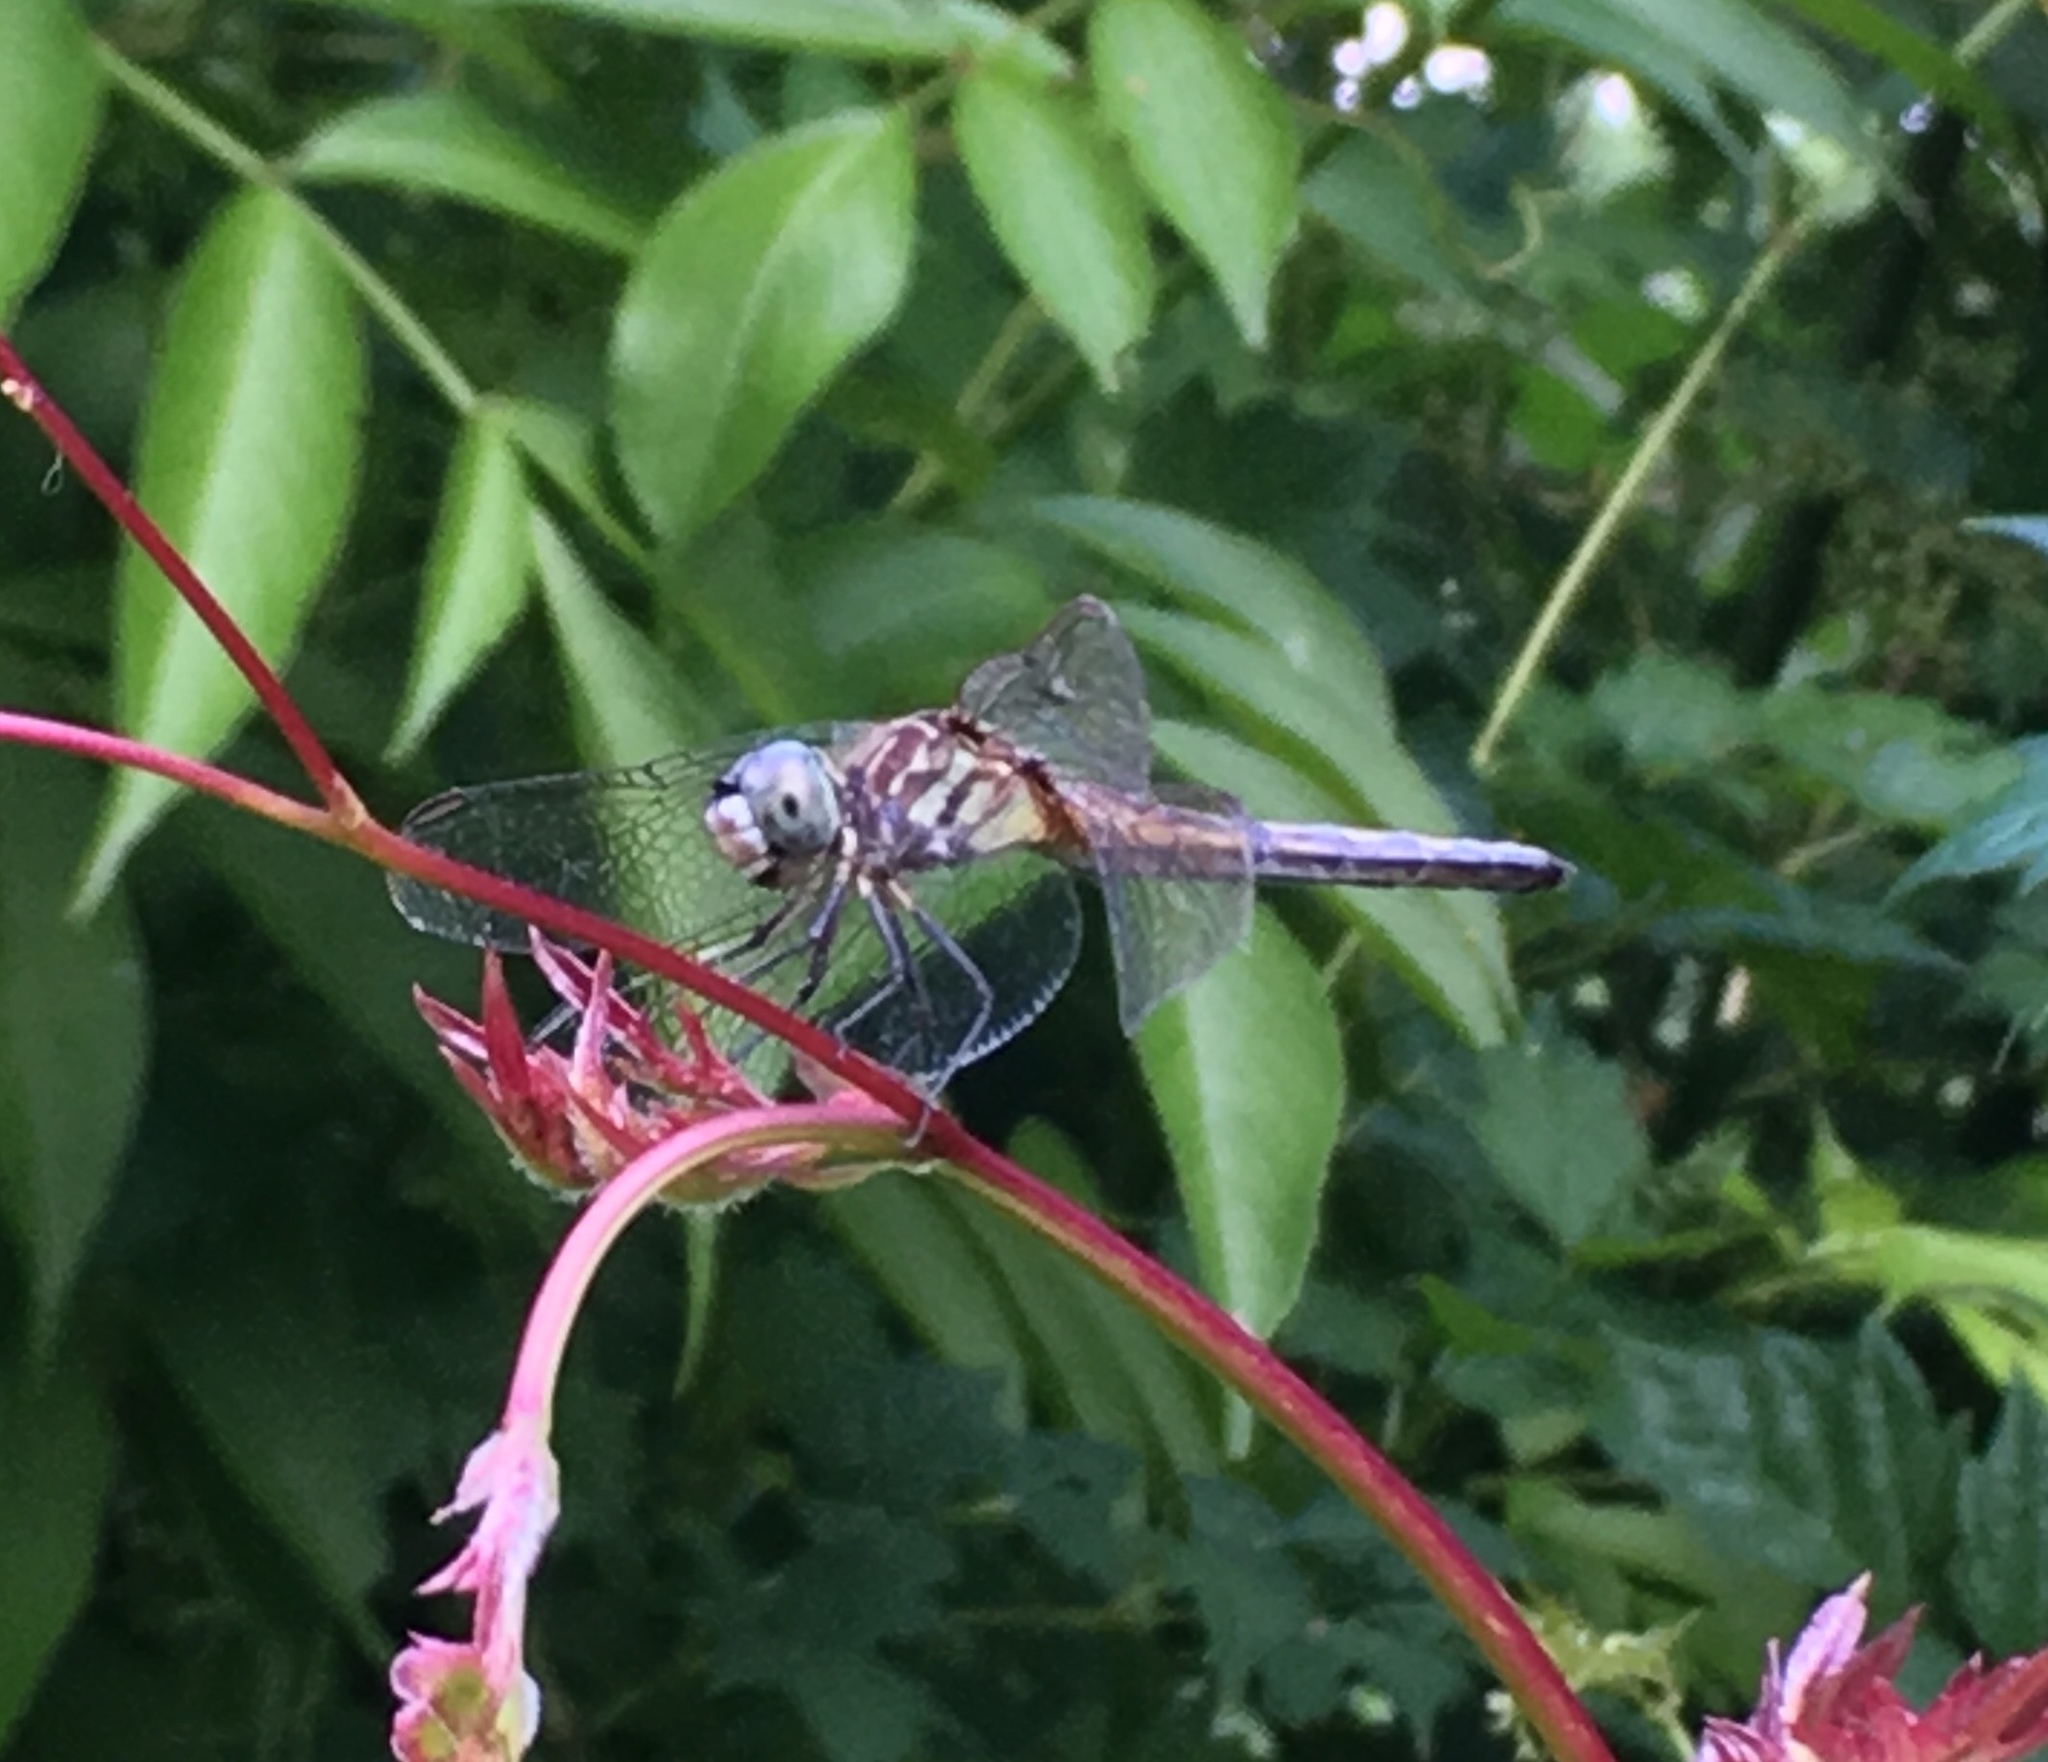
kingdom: Animalia
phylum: Arthropoda
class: Insecta
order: Odonata
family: Libellulidae
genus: Pachydiplax
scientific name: Pachydiplax longipennis
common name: Blue dasher
